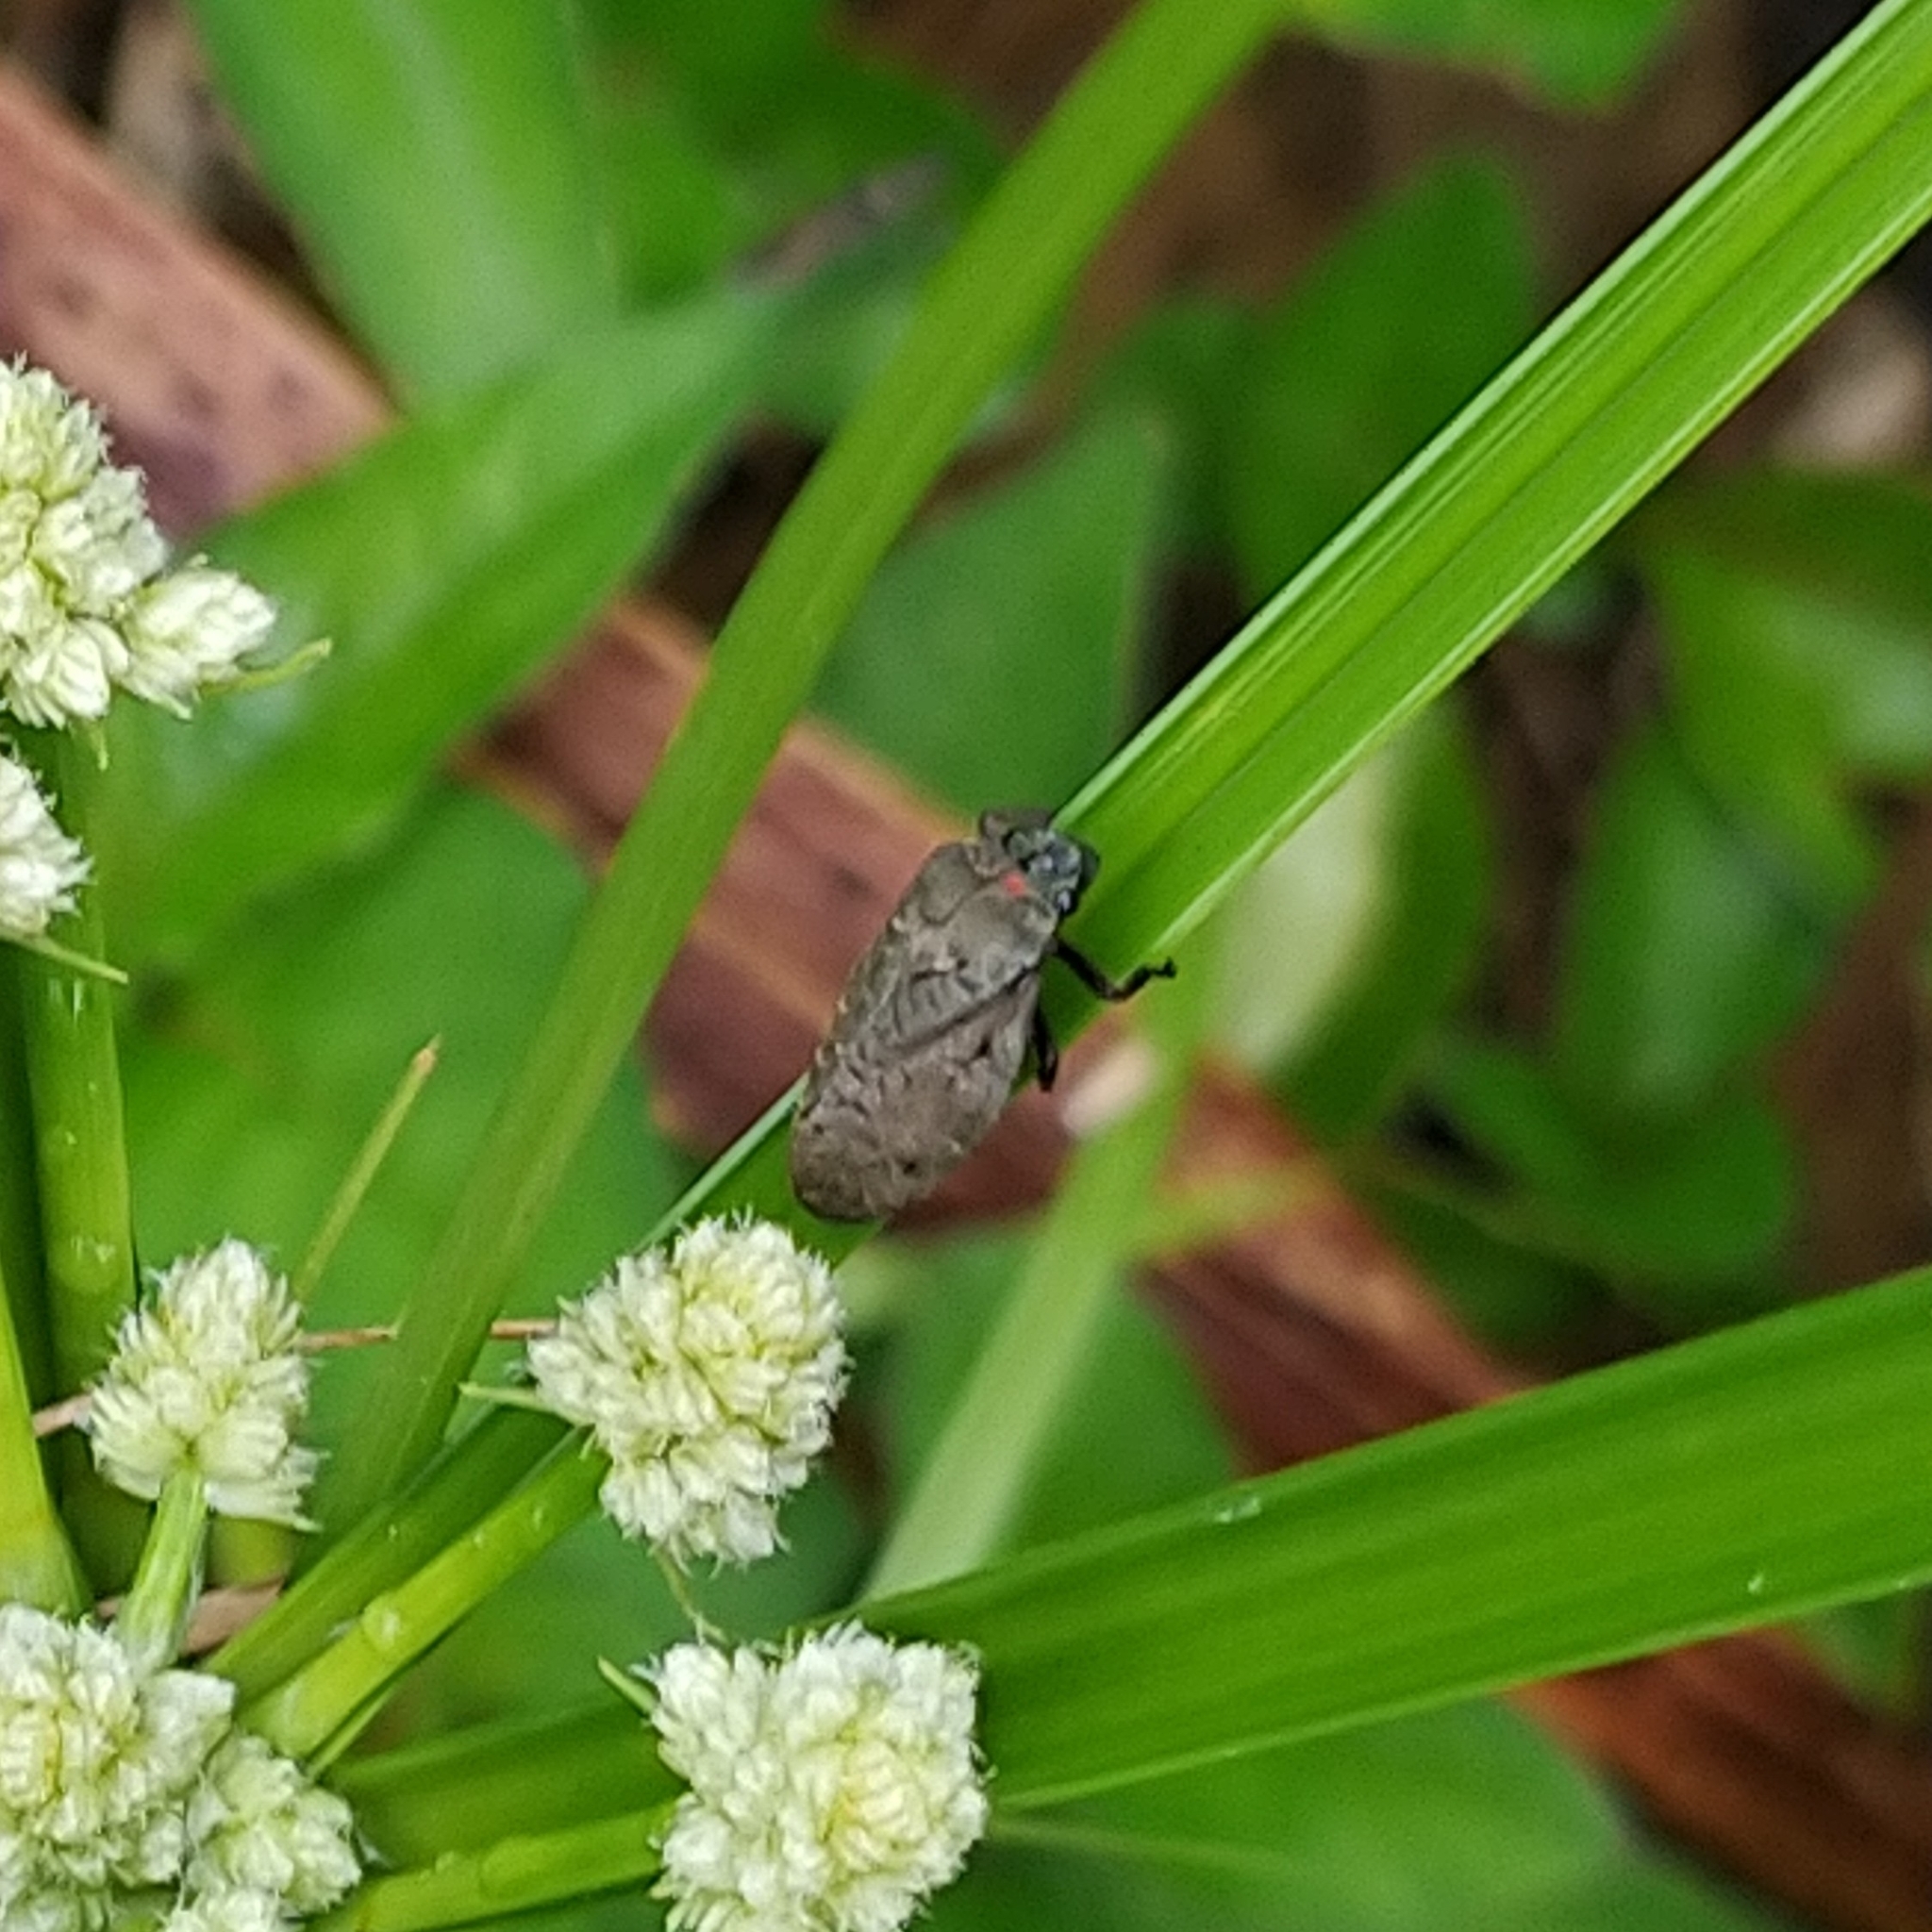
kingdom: Animalia
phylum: Arthropoda
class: Insecta
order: Hemiptera
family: Cercopidae
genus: Zulia
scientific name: Zulia pubescens
